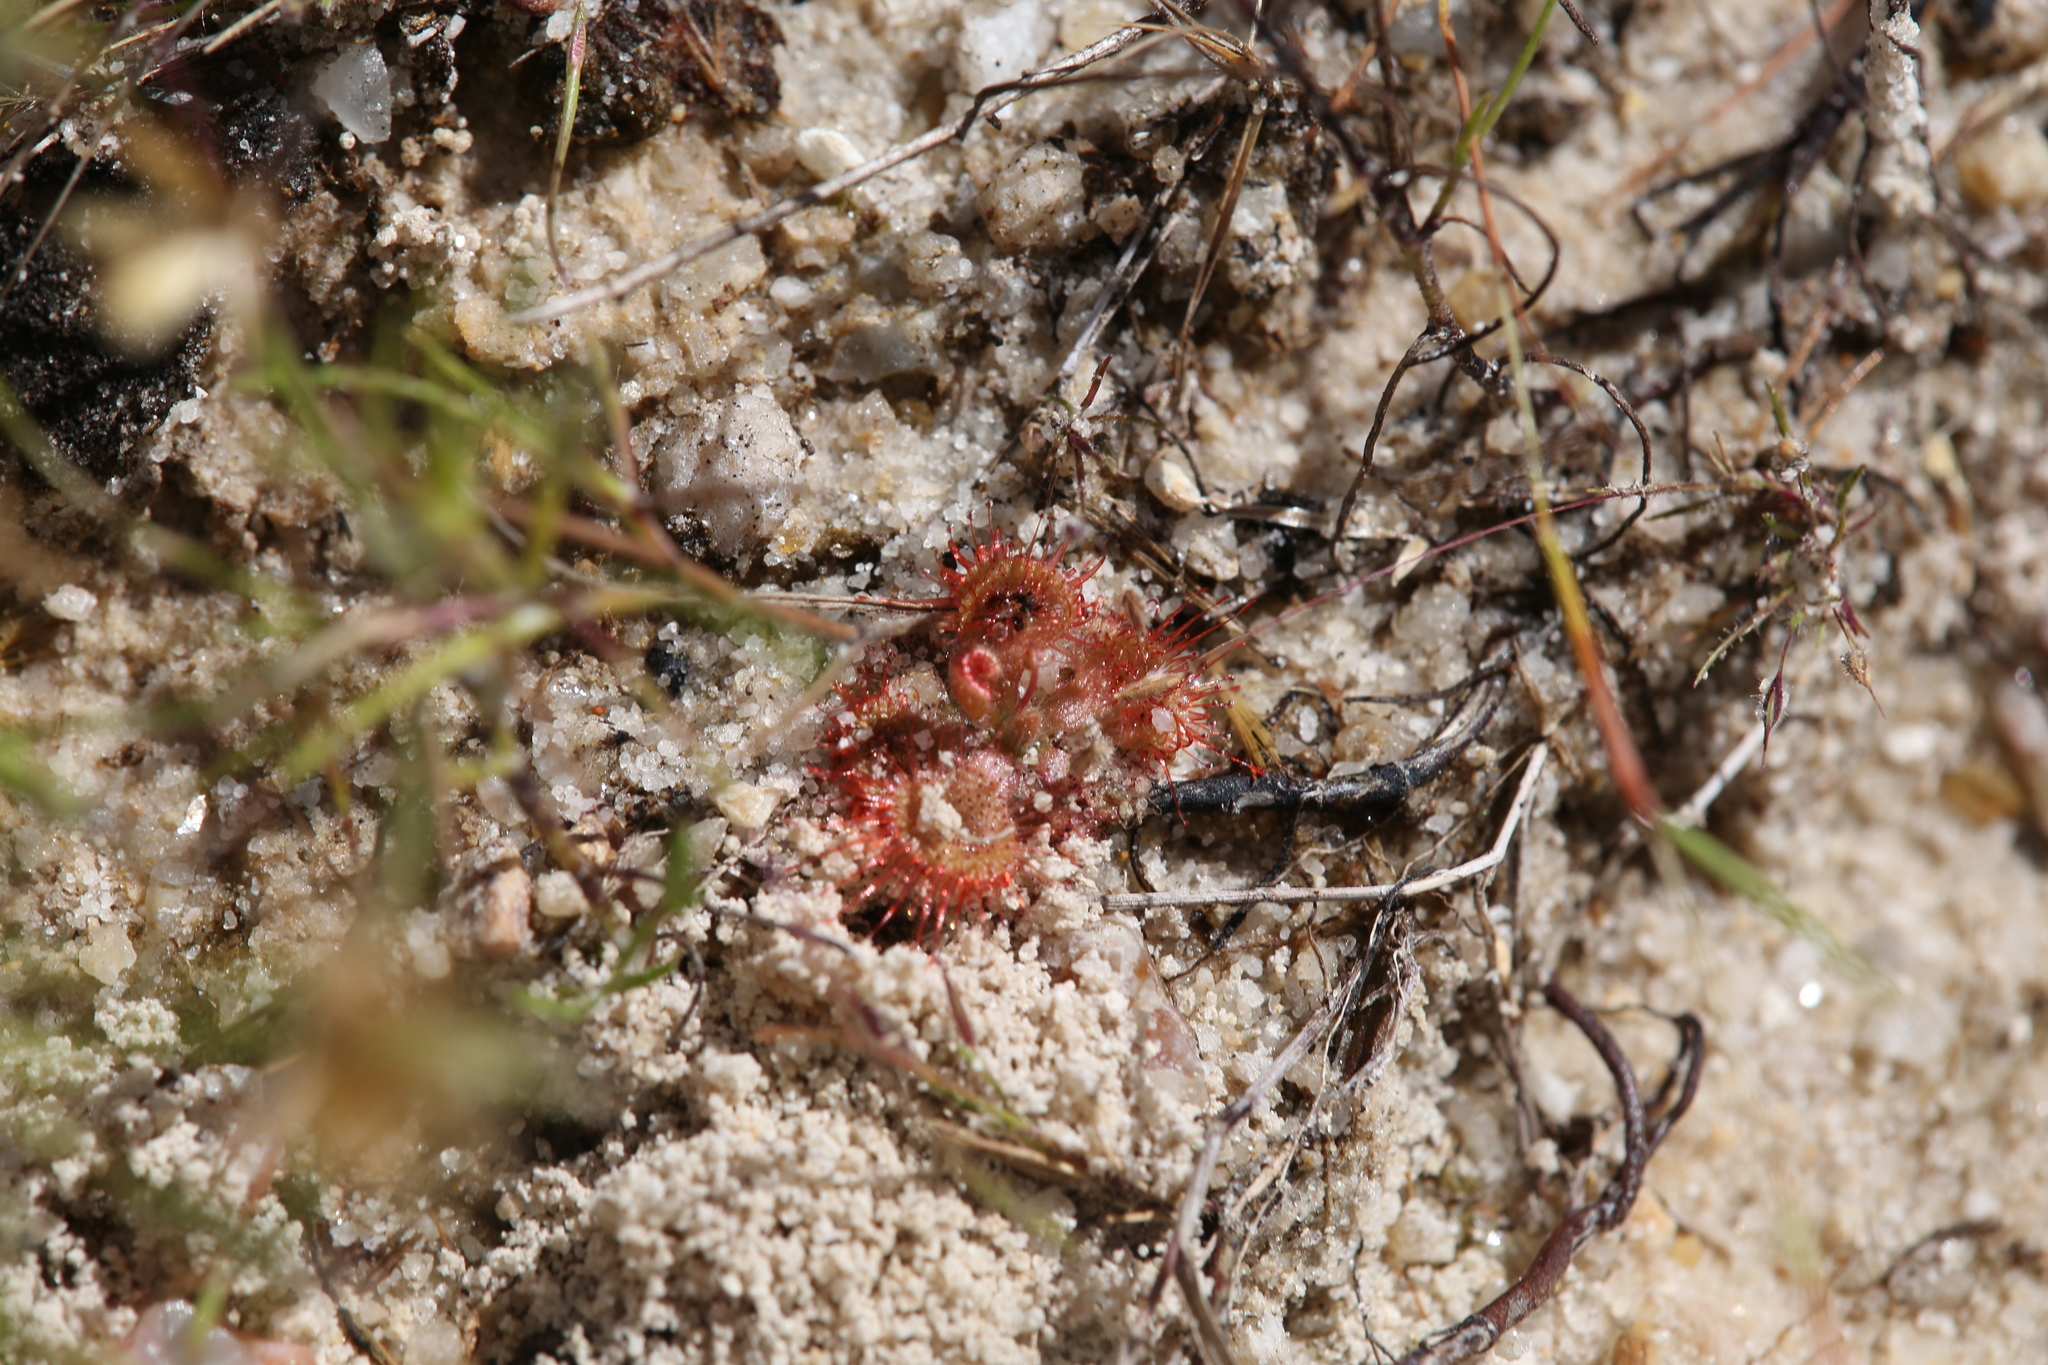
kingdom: Plantae
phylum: Tracheophyta
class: Magnoliopsida
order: Caryophyllales
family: Droseraceae
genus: Drosera
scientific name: Drosera spatulata
